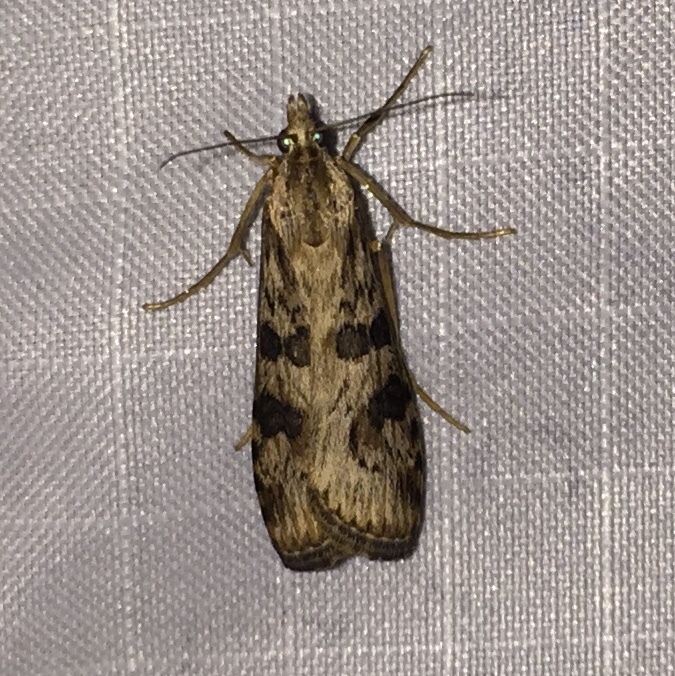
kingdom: Animalia
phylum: Arthropoda
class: Insecta
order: Lepidoptera
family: Crambidae
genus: Nomophila
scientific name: Nomophila nearctica
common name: American rush veneer
